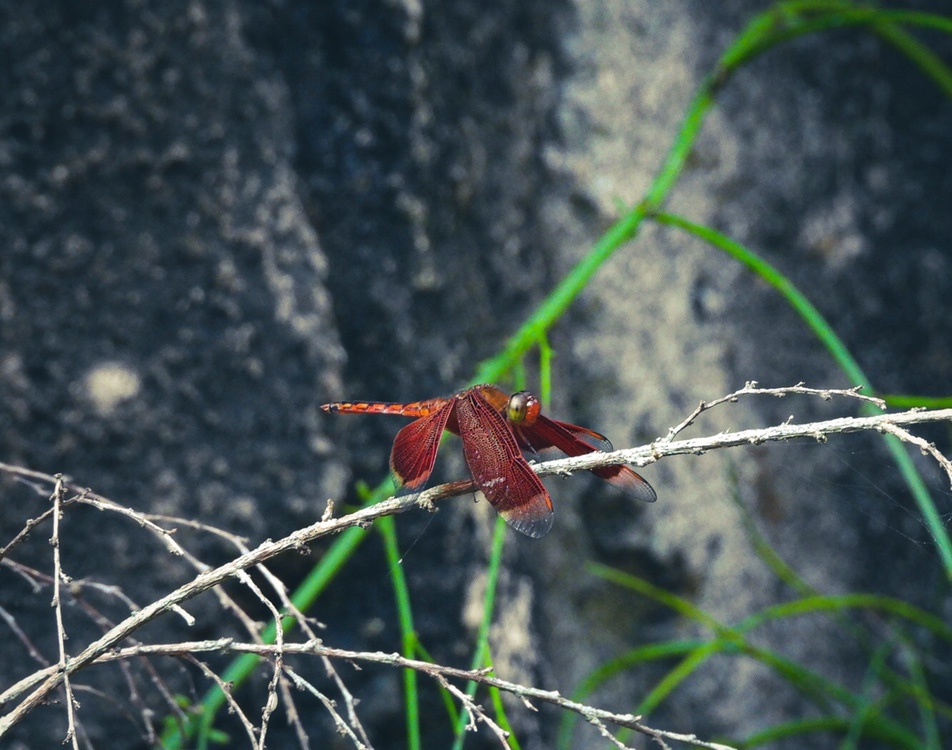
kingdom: Animalia
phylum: Arthropoda
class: Insecta
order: Odonata
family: Libellulidae
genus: Neurothemis
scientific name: Neurothemis ramburii
